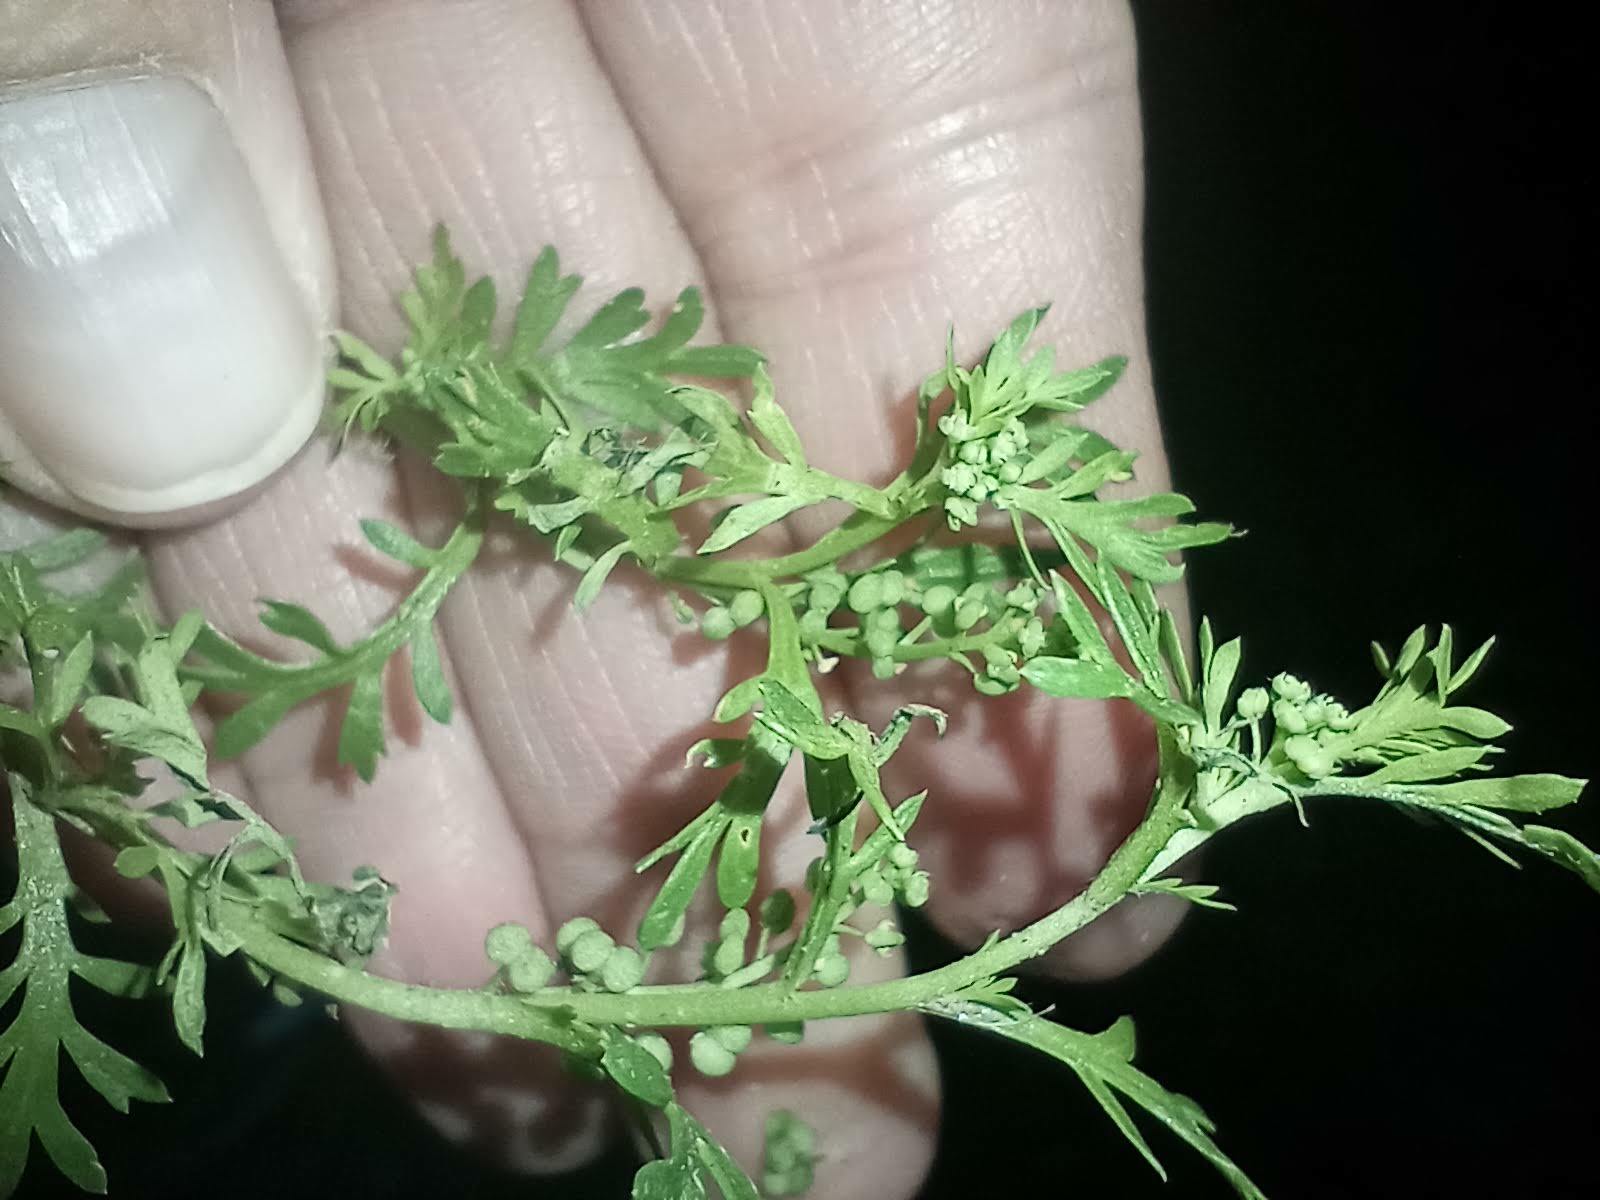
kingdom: Plantae
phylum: Tracheophyta
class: Magnoliopsida
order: Brassicales
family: Brassicaceae
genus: Lepidium
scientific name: Lepidium didymum
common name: Lesser swinecress
